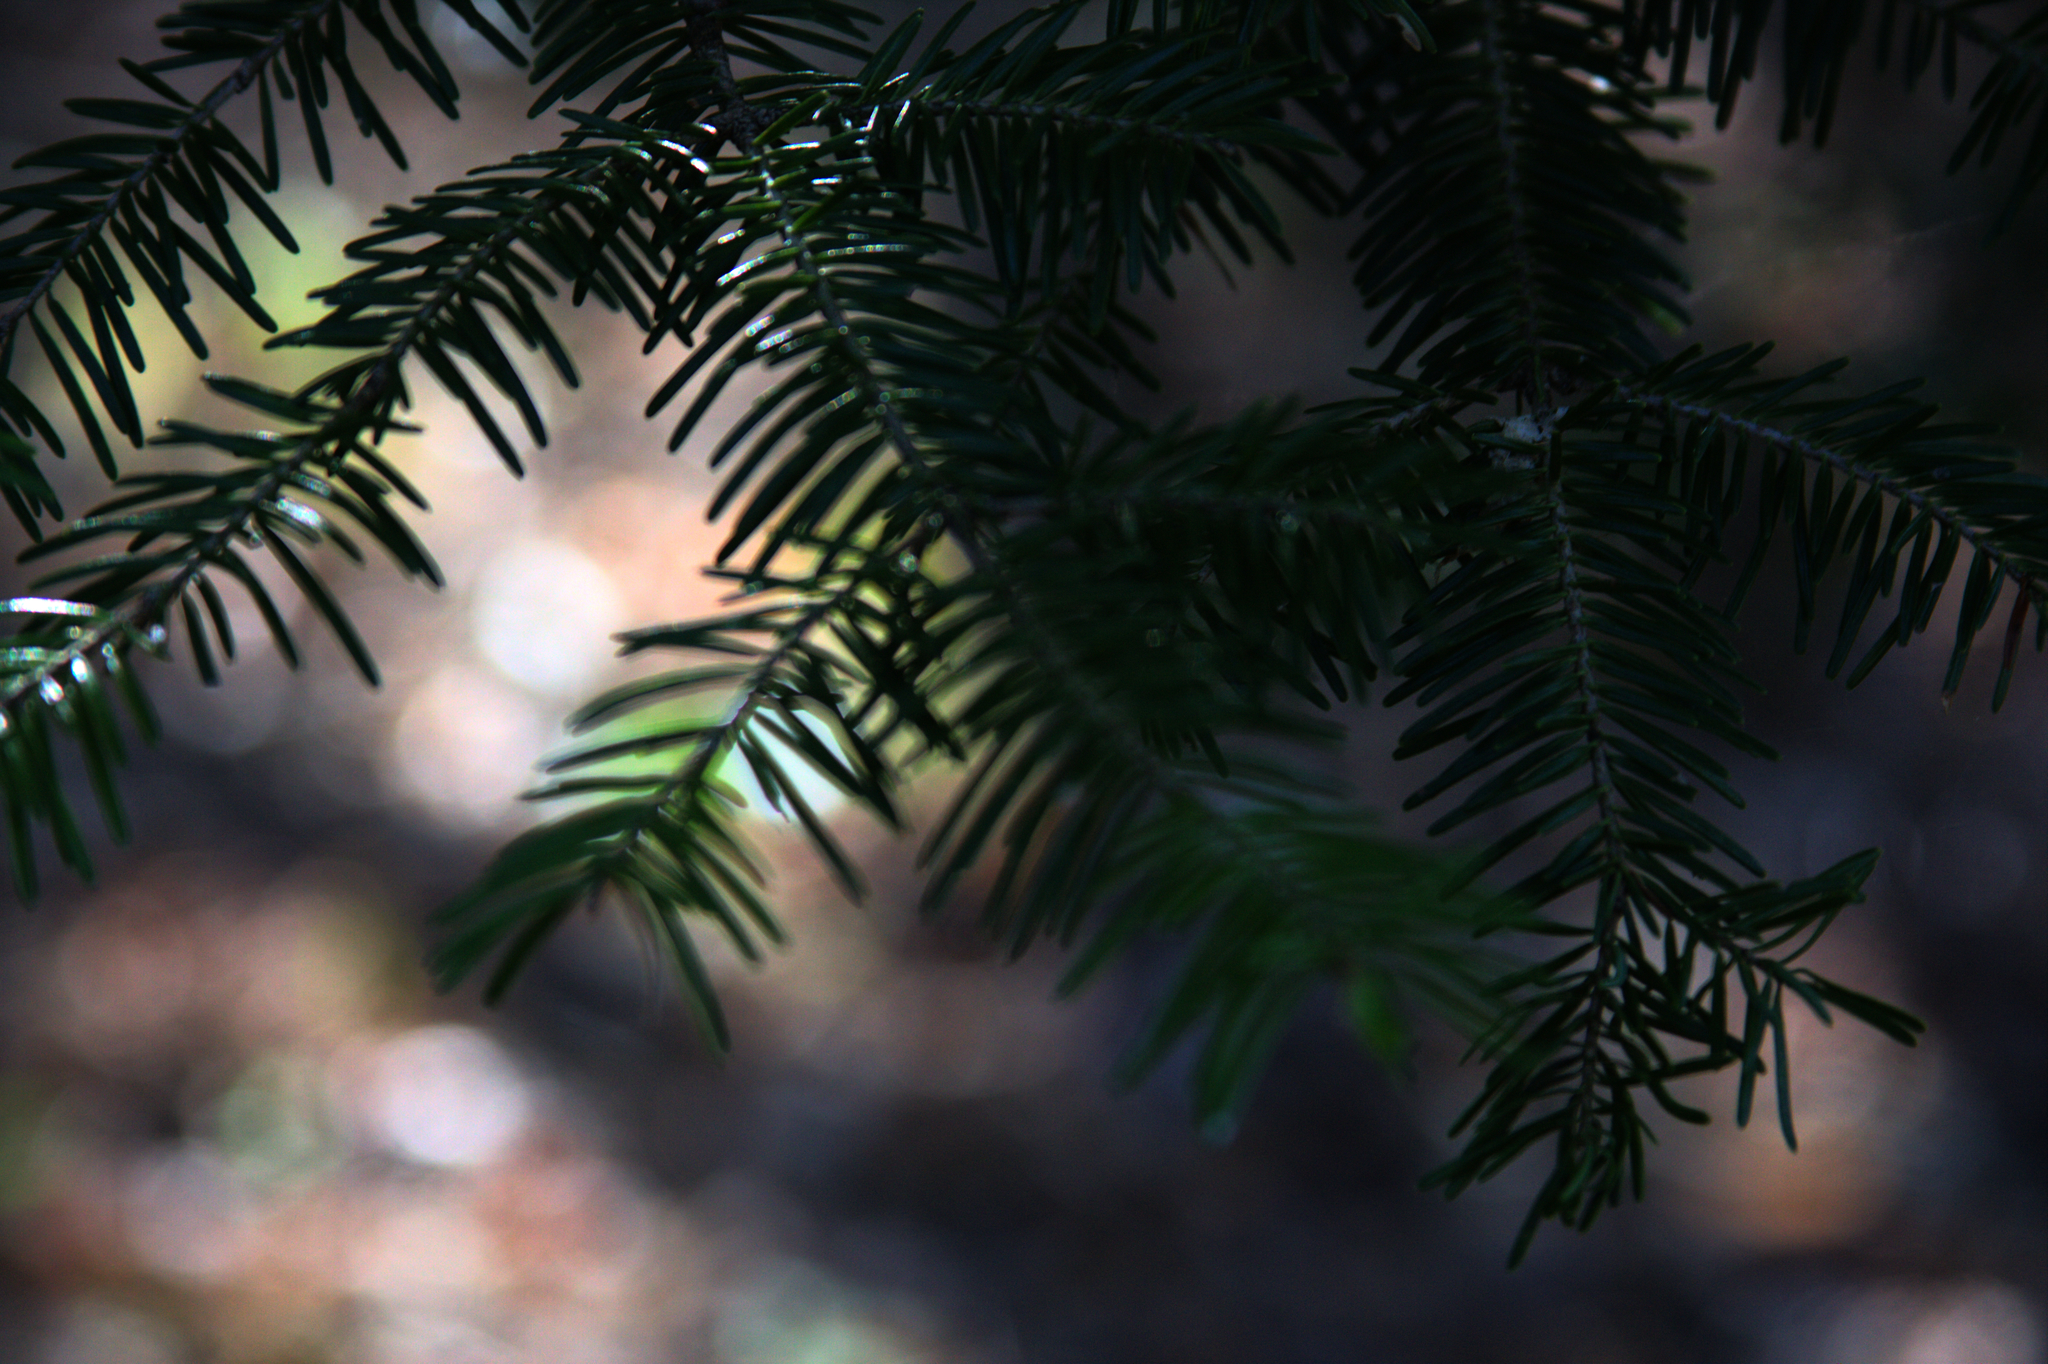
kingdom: Plantae
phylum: Tracheophyta
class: Pinopsida
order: Pinales
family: Pinaceae
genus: Abies
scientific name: Abies balsamea
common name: Balsam fir
